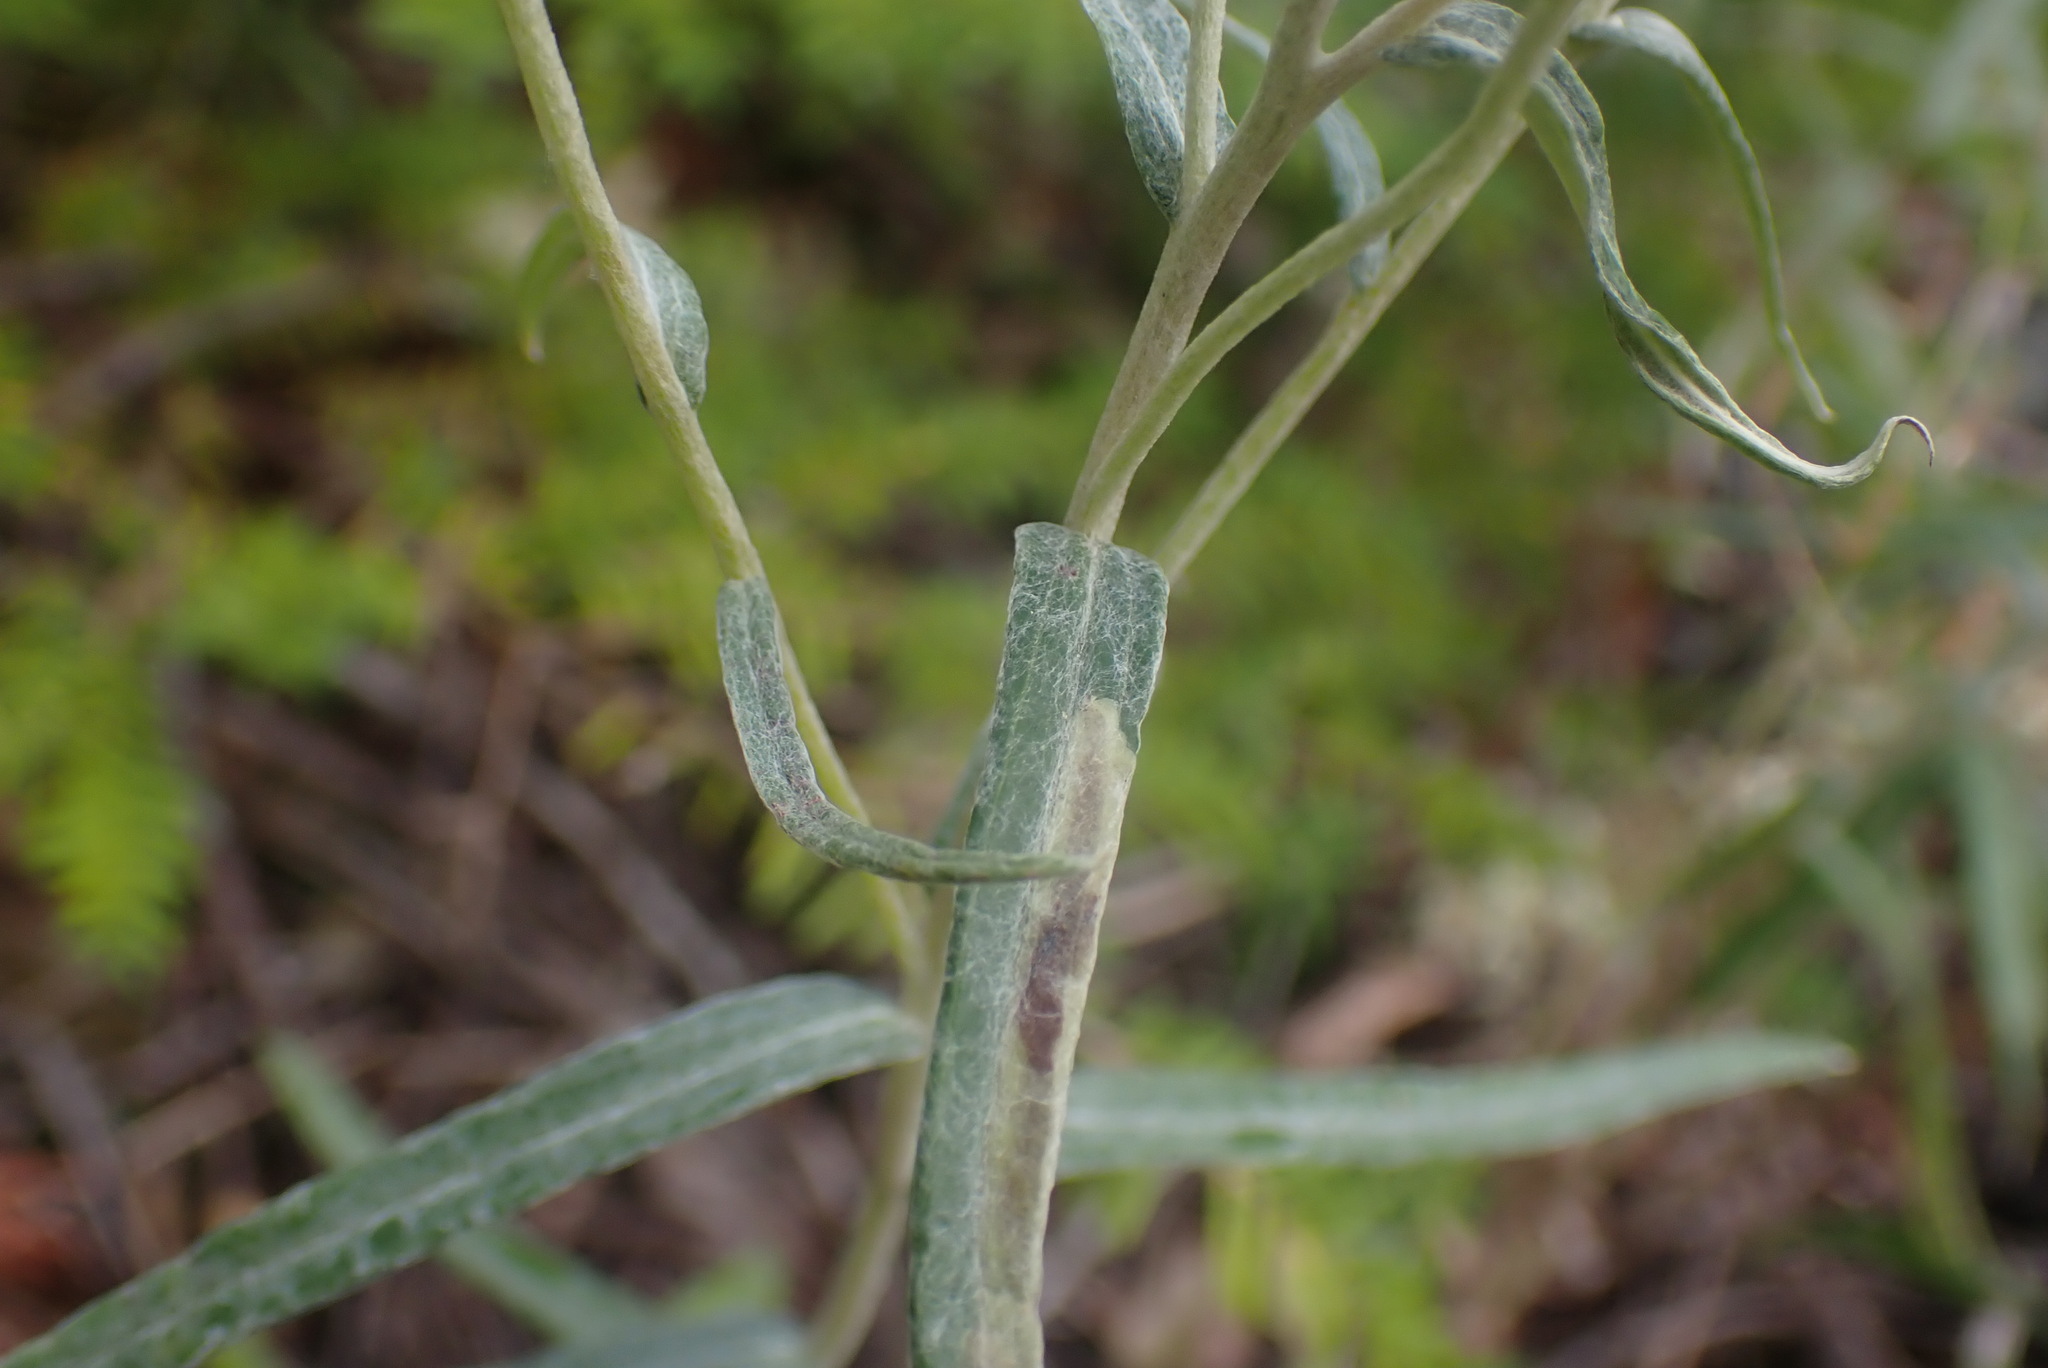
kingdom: Plantae
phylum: Tracheophyta
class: Magnoliopsida
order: Asterales
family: Asteraceae
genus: Anaphalis
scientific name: Anaphalis margaritacea
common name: Pearly everlasting
